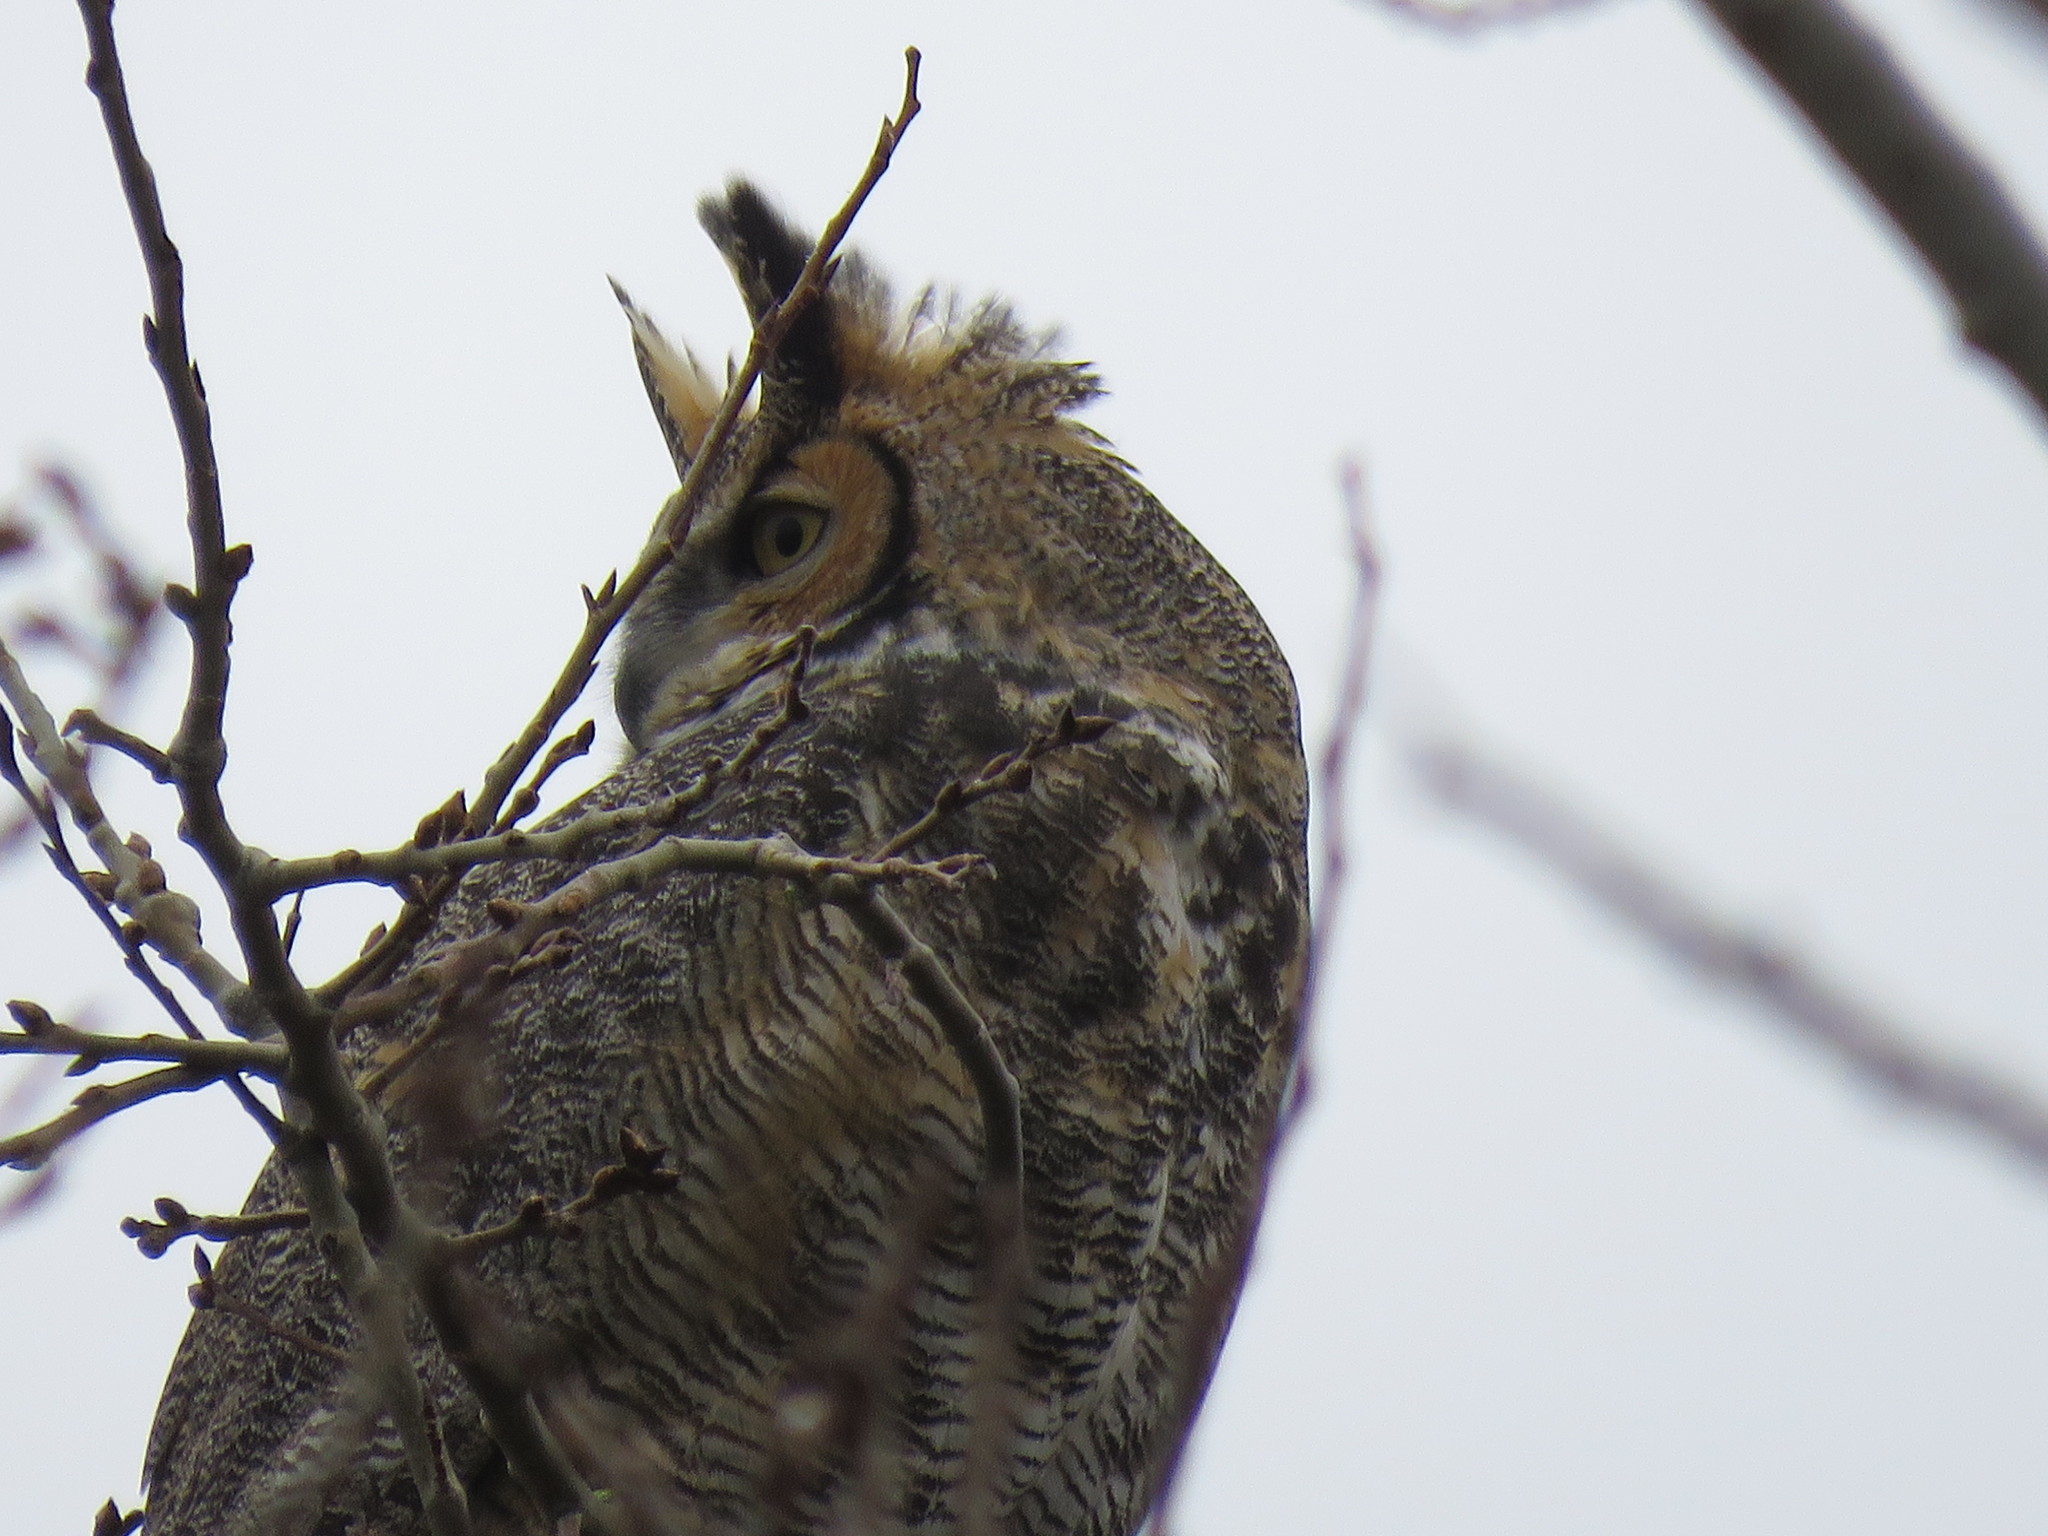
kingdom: Animalia
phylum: Chordata
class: Aves
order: Strigiformes
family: Strigidae
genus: Bubo
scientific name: Bubo virginianus
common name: Great horned owl
